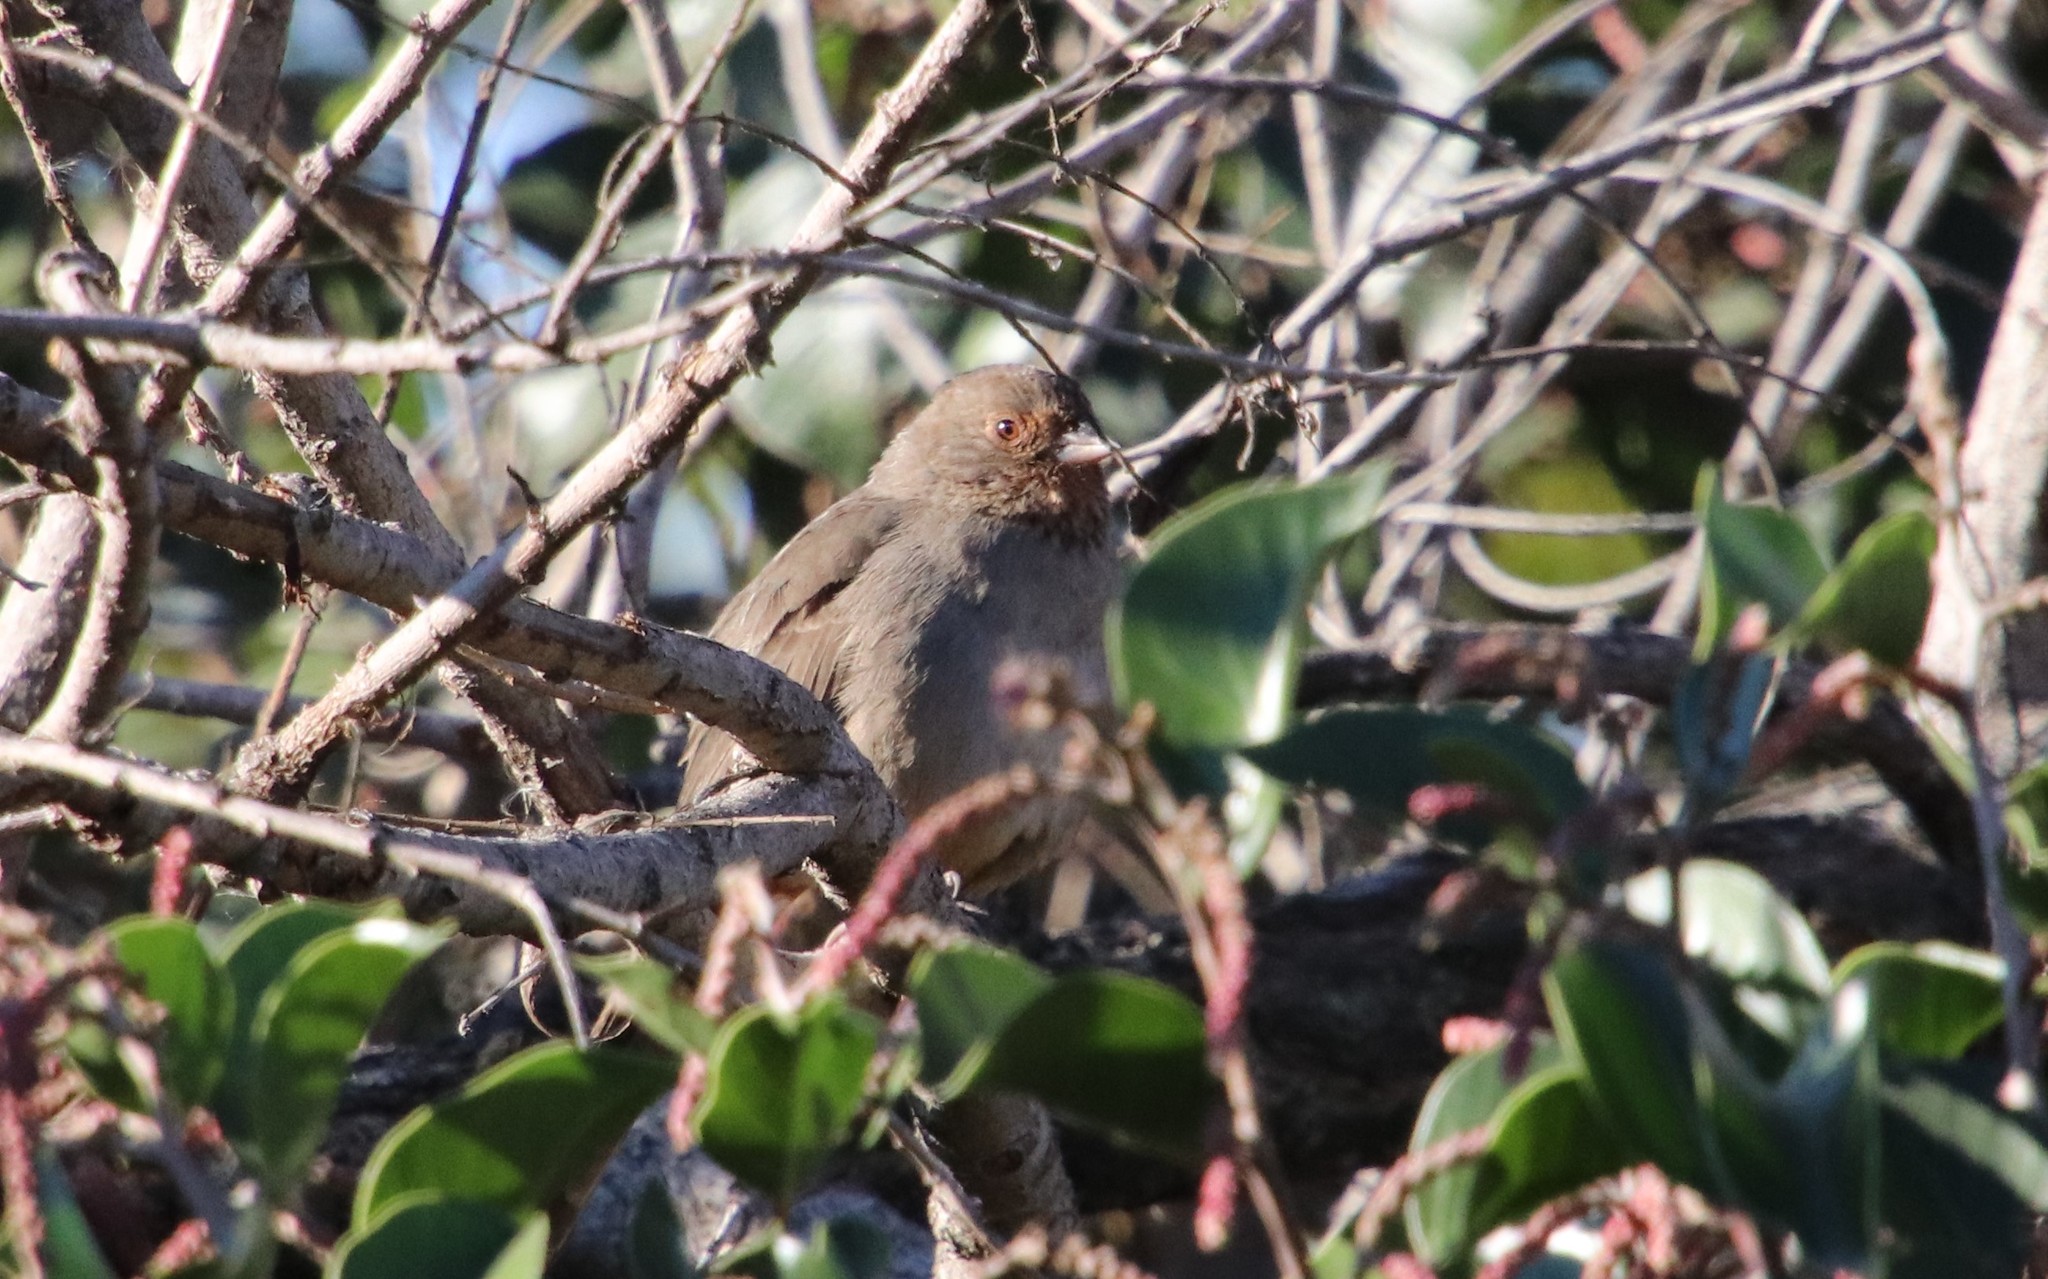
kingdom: Animalia
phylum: Chordata
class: Aves
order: Passeriformes
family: Passerellidae
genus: Melozone
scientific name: Melozone crissalis
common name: California towhee
